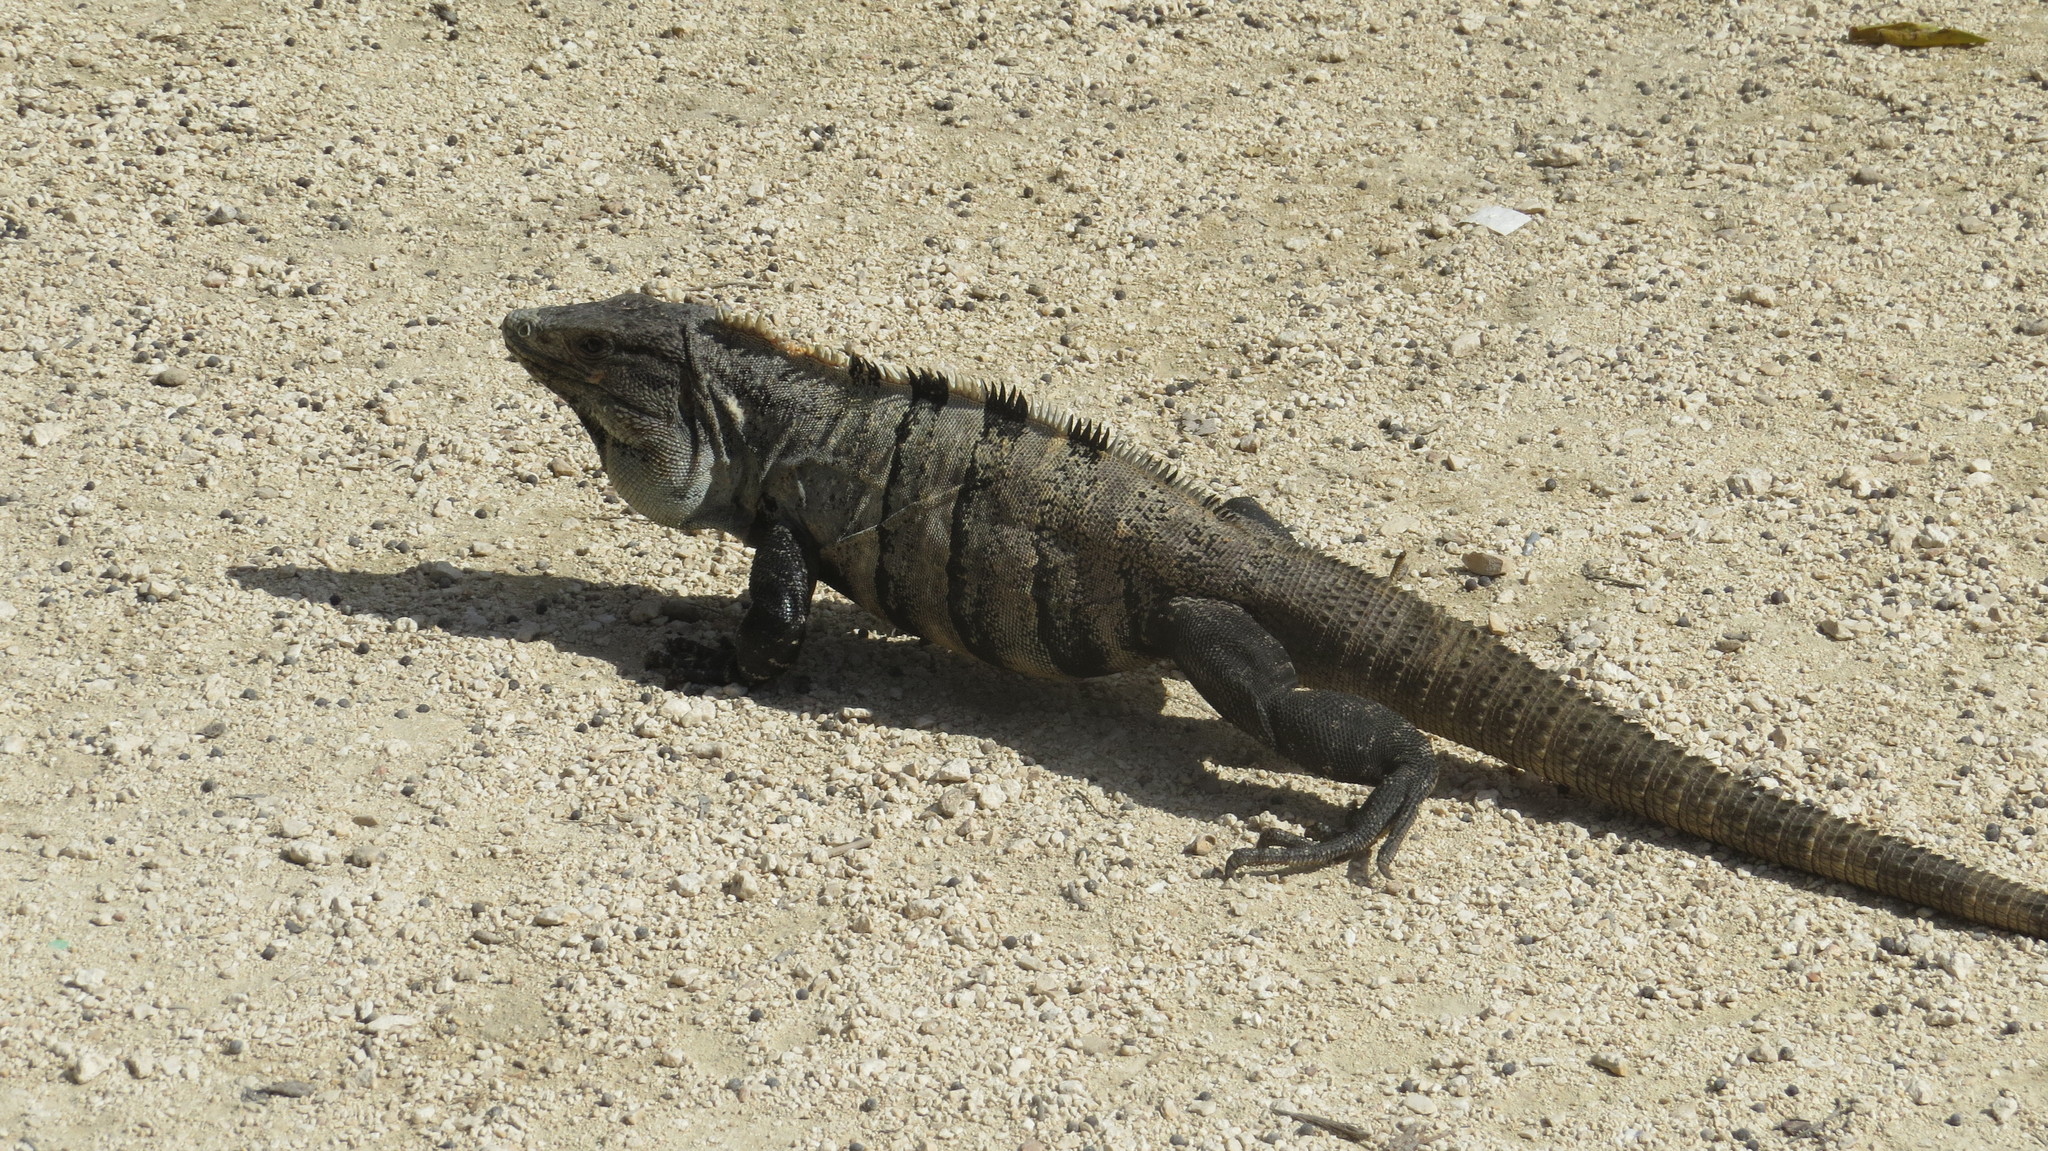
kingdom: Animalia
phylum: Chordata
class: Squamata
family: Iguanidae
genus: Ctenosaura
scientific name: Ctenosaura similis
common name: Black spiny-tailed iguana
